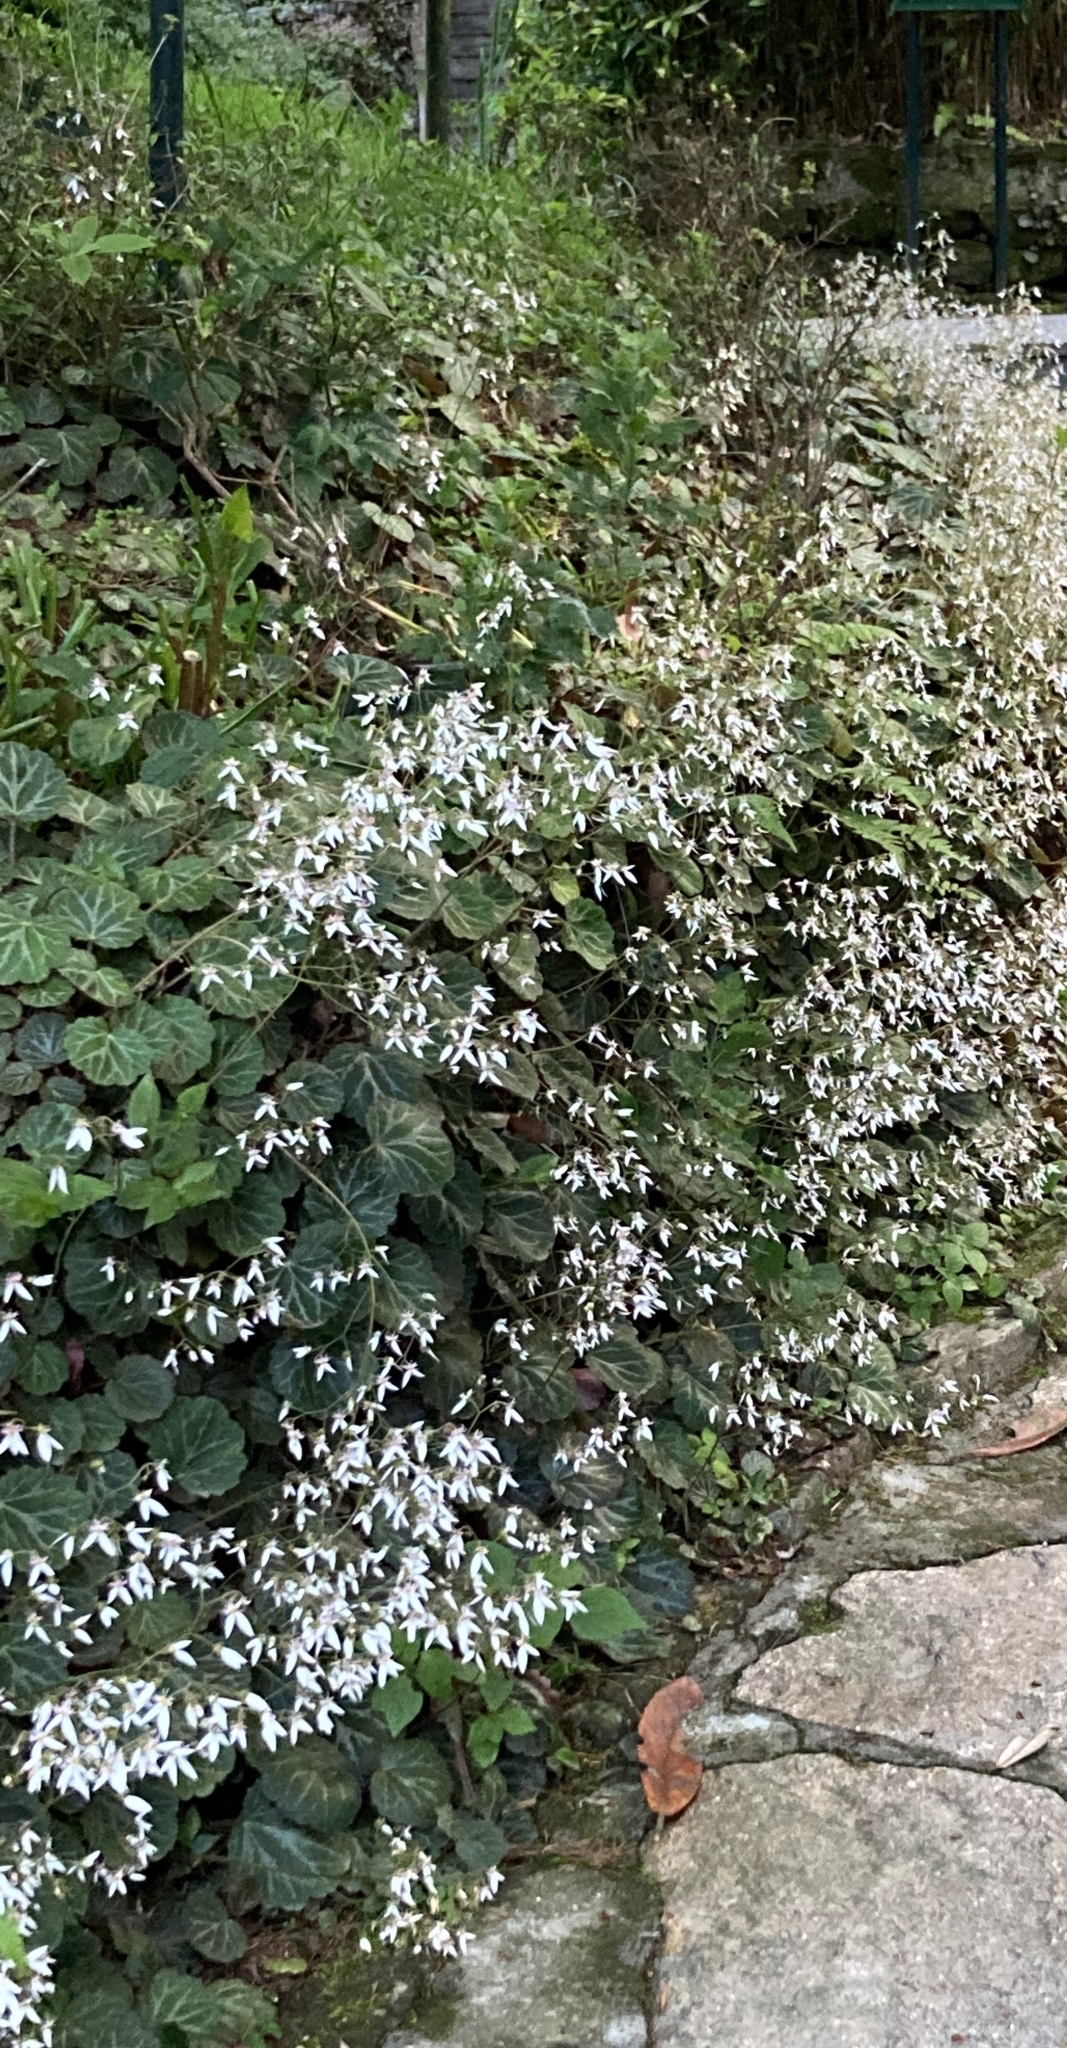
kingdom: Plantae
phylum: Tracheophyta
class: Magnoliopsida
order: Saxifragales
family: Saxifragaceae
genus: Saxifraga
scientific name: Saxifraga stolonifera
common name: Creeping saxifrage
